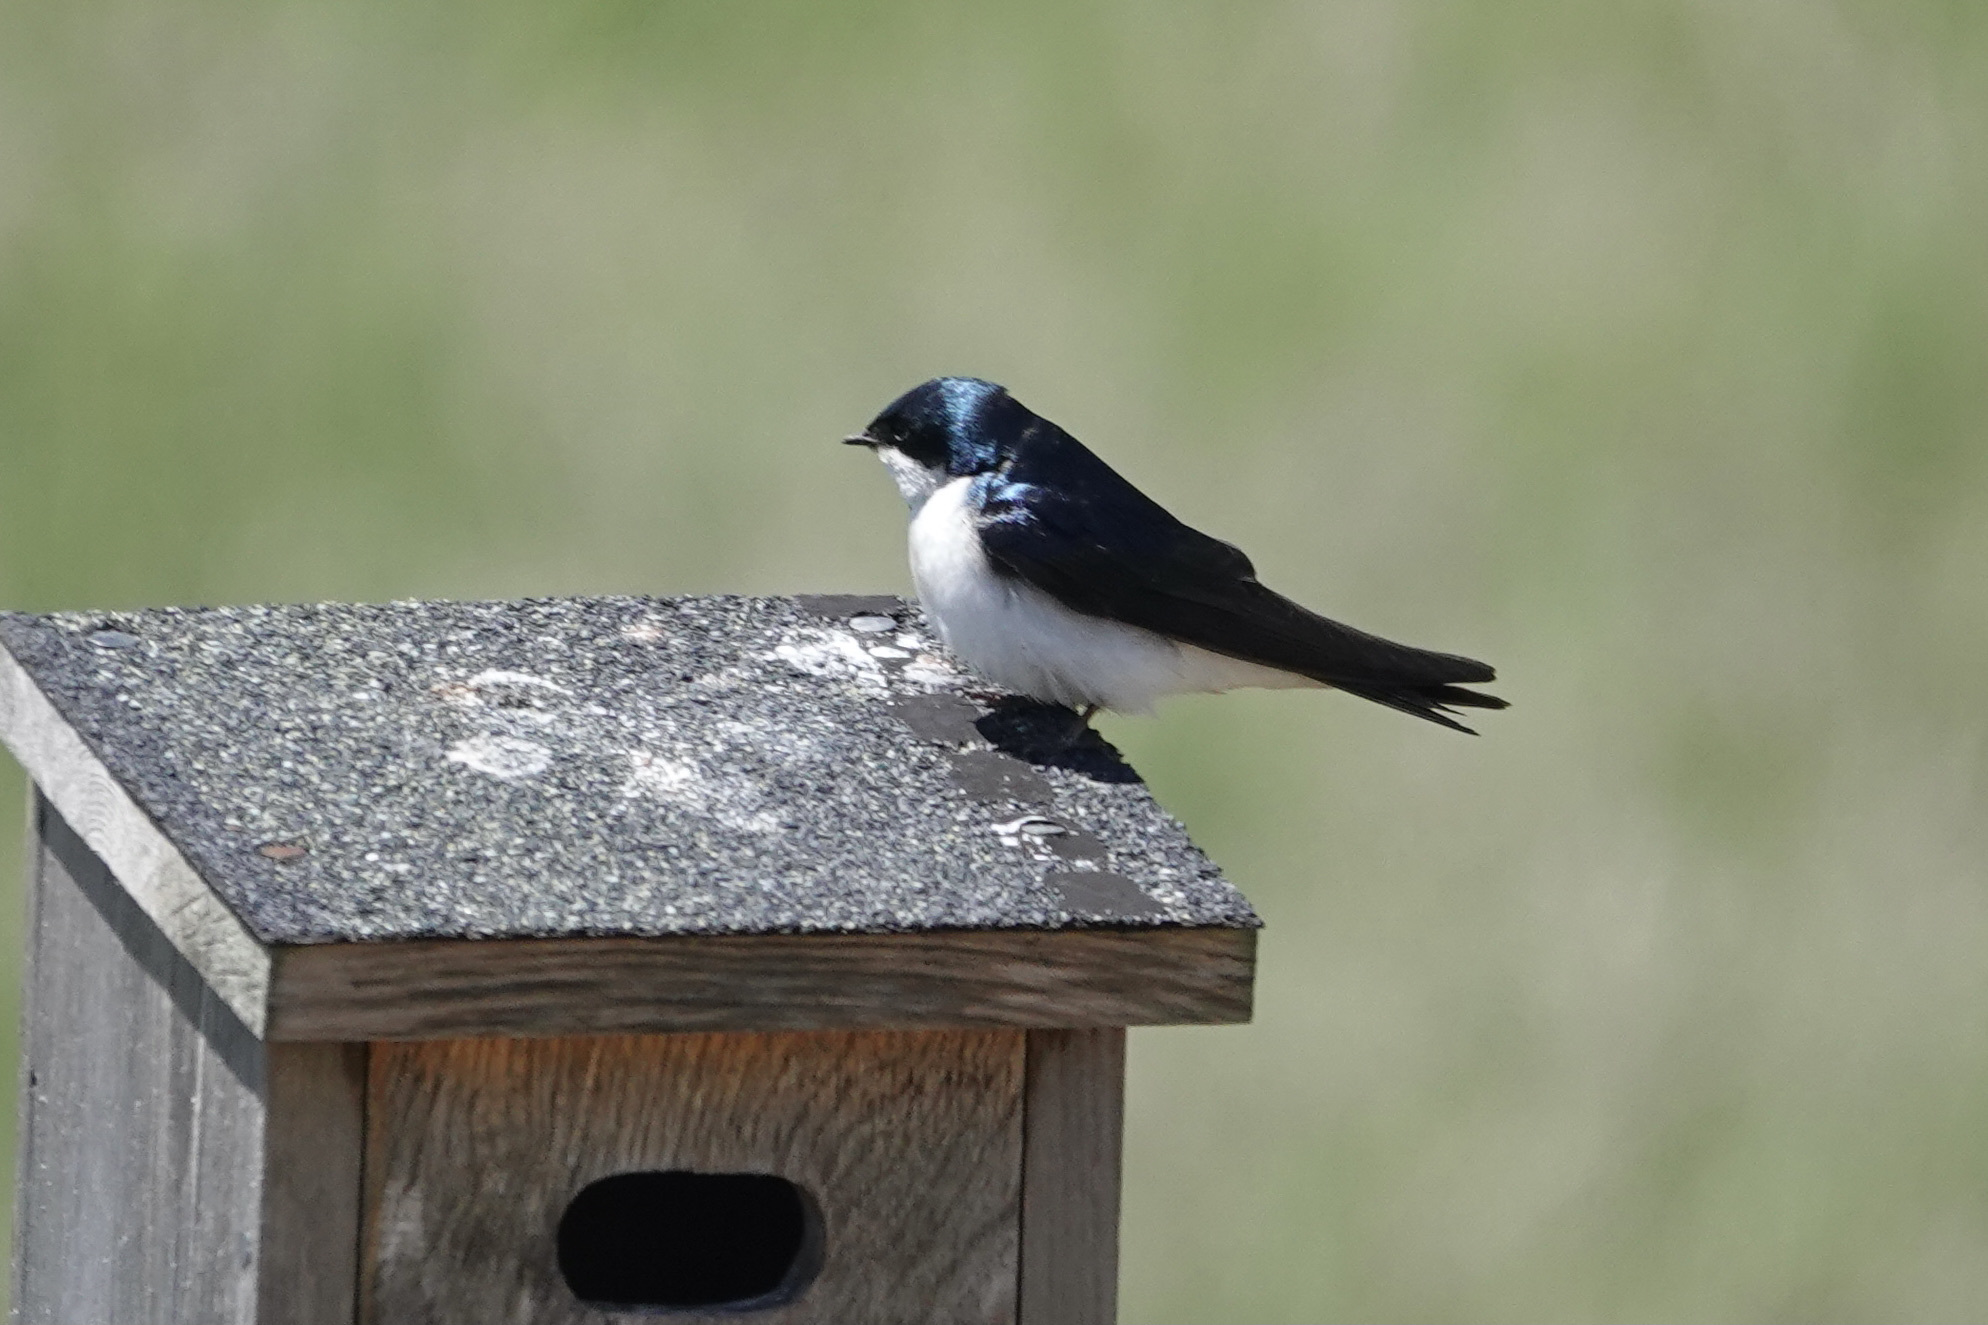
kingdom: Animalia
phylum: Chordata
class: Aves
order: Passeriformes
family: Hirundinidae
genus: Tachycineta
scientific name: Tachycineta bicolor
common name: Tree swallow
